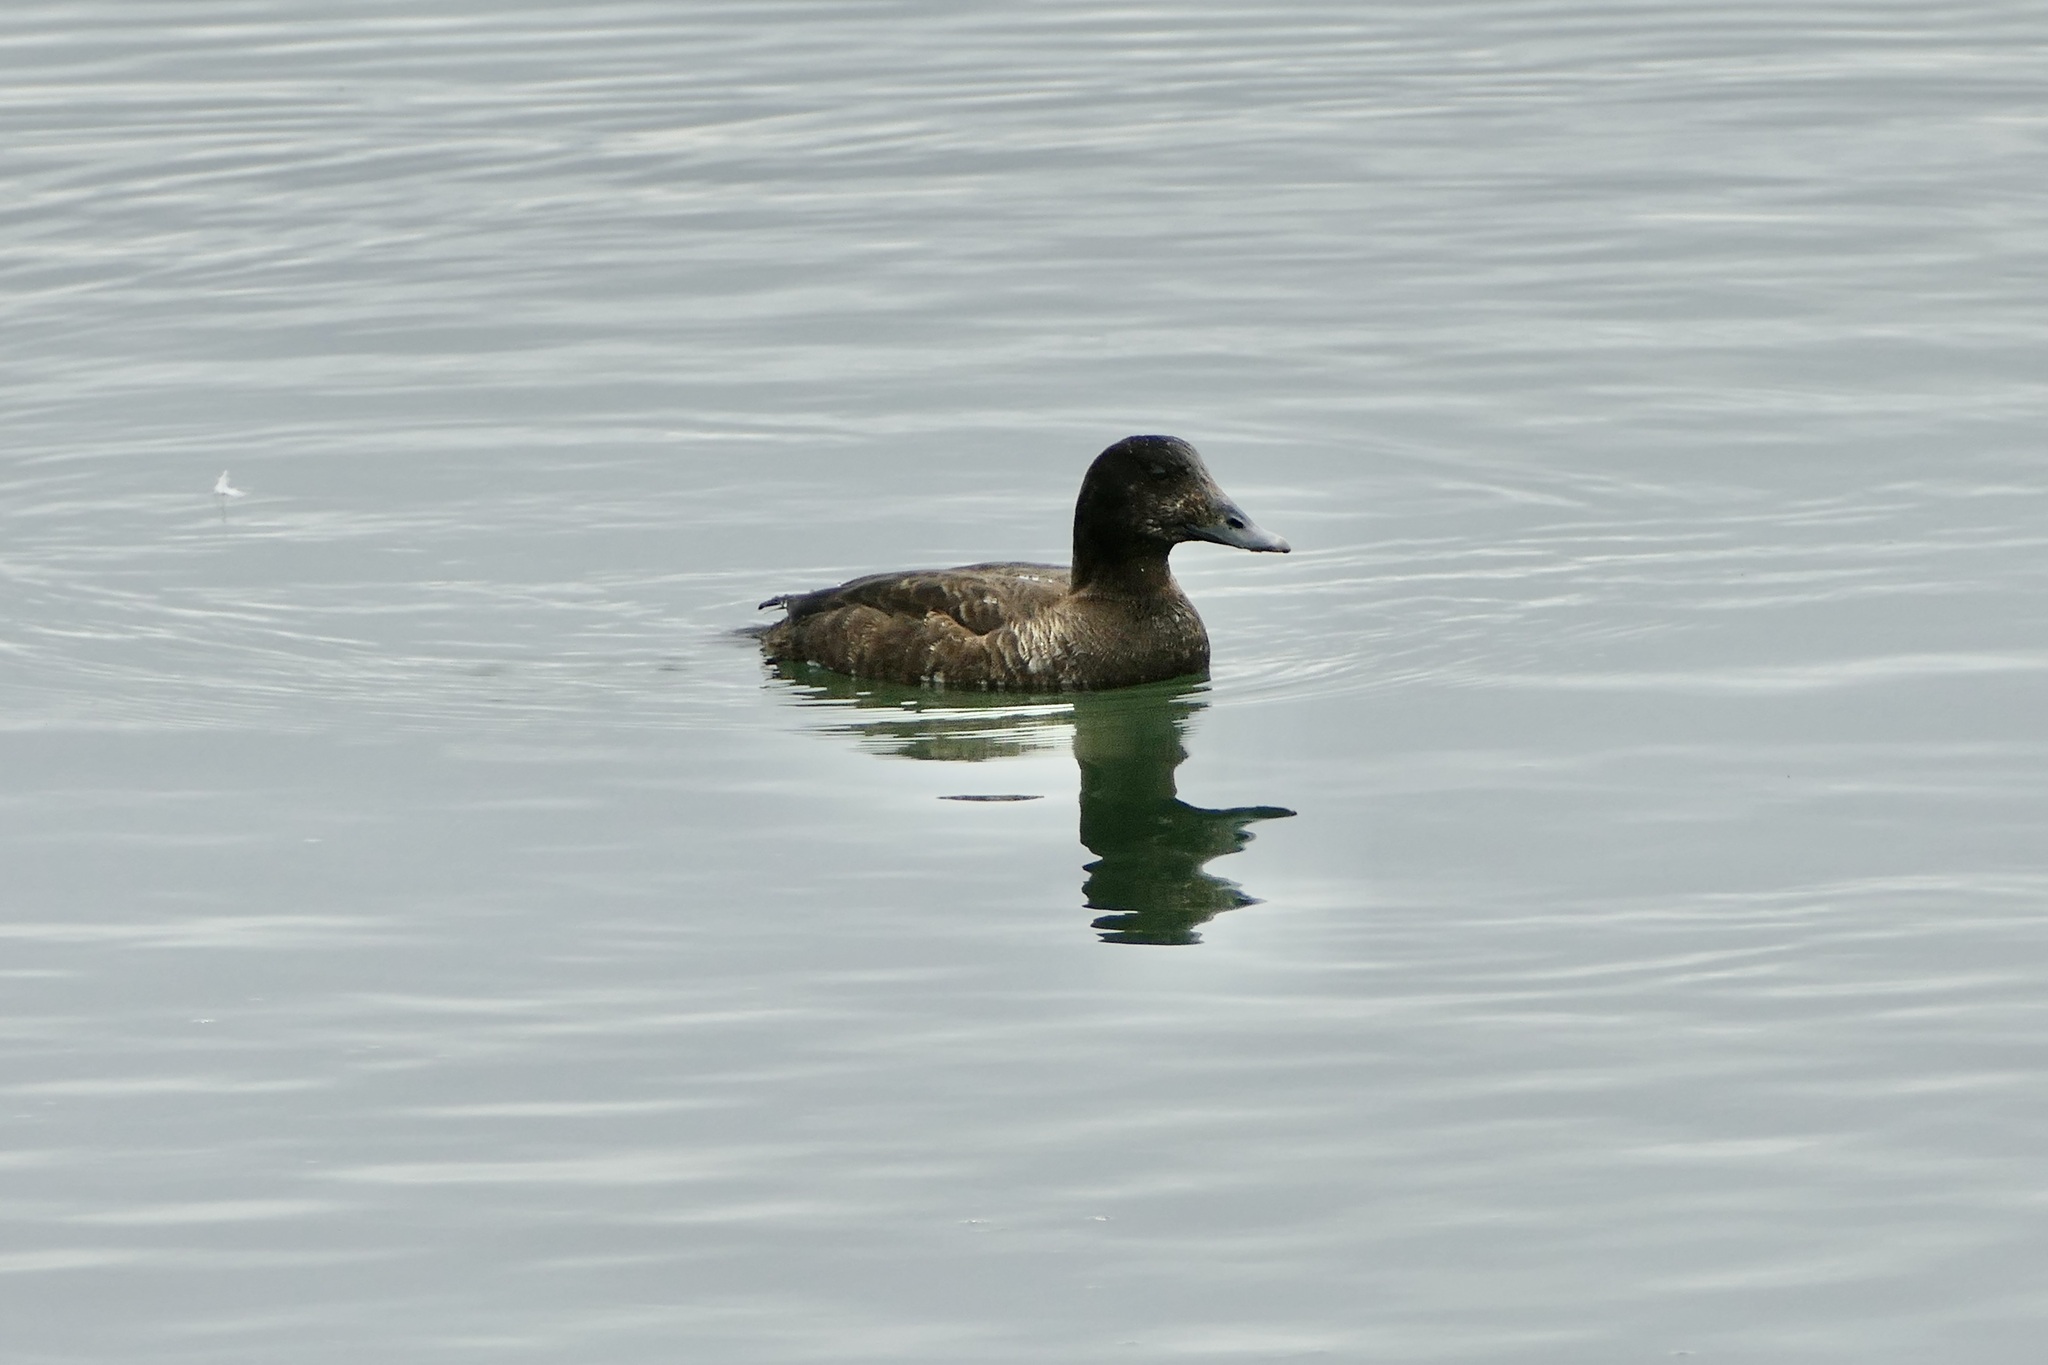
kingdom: Animalia
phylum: Chordata
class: Aves
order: Anseriformes
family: Anatidae
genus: Melanitta
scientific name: Melanitta deglandi
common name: White-winged scoter
